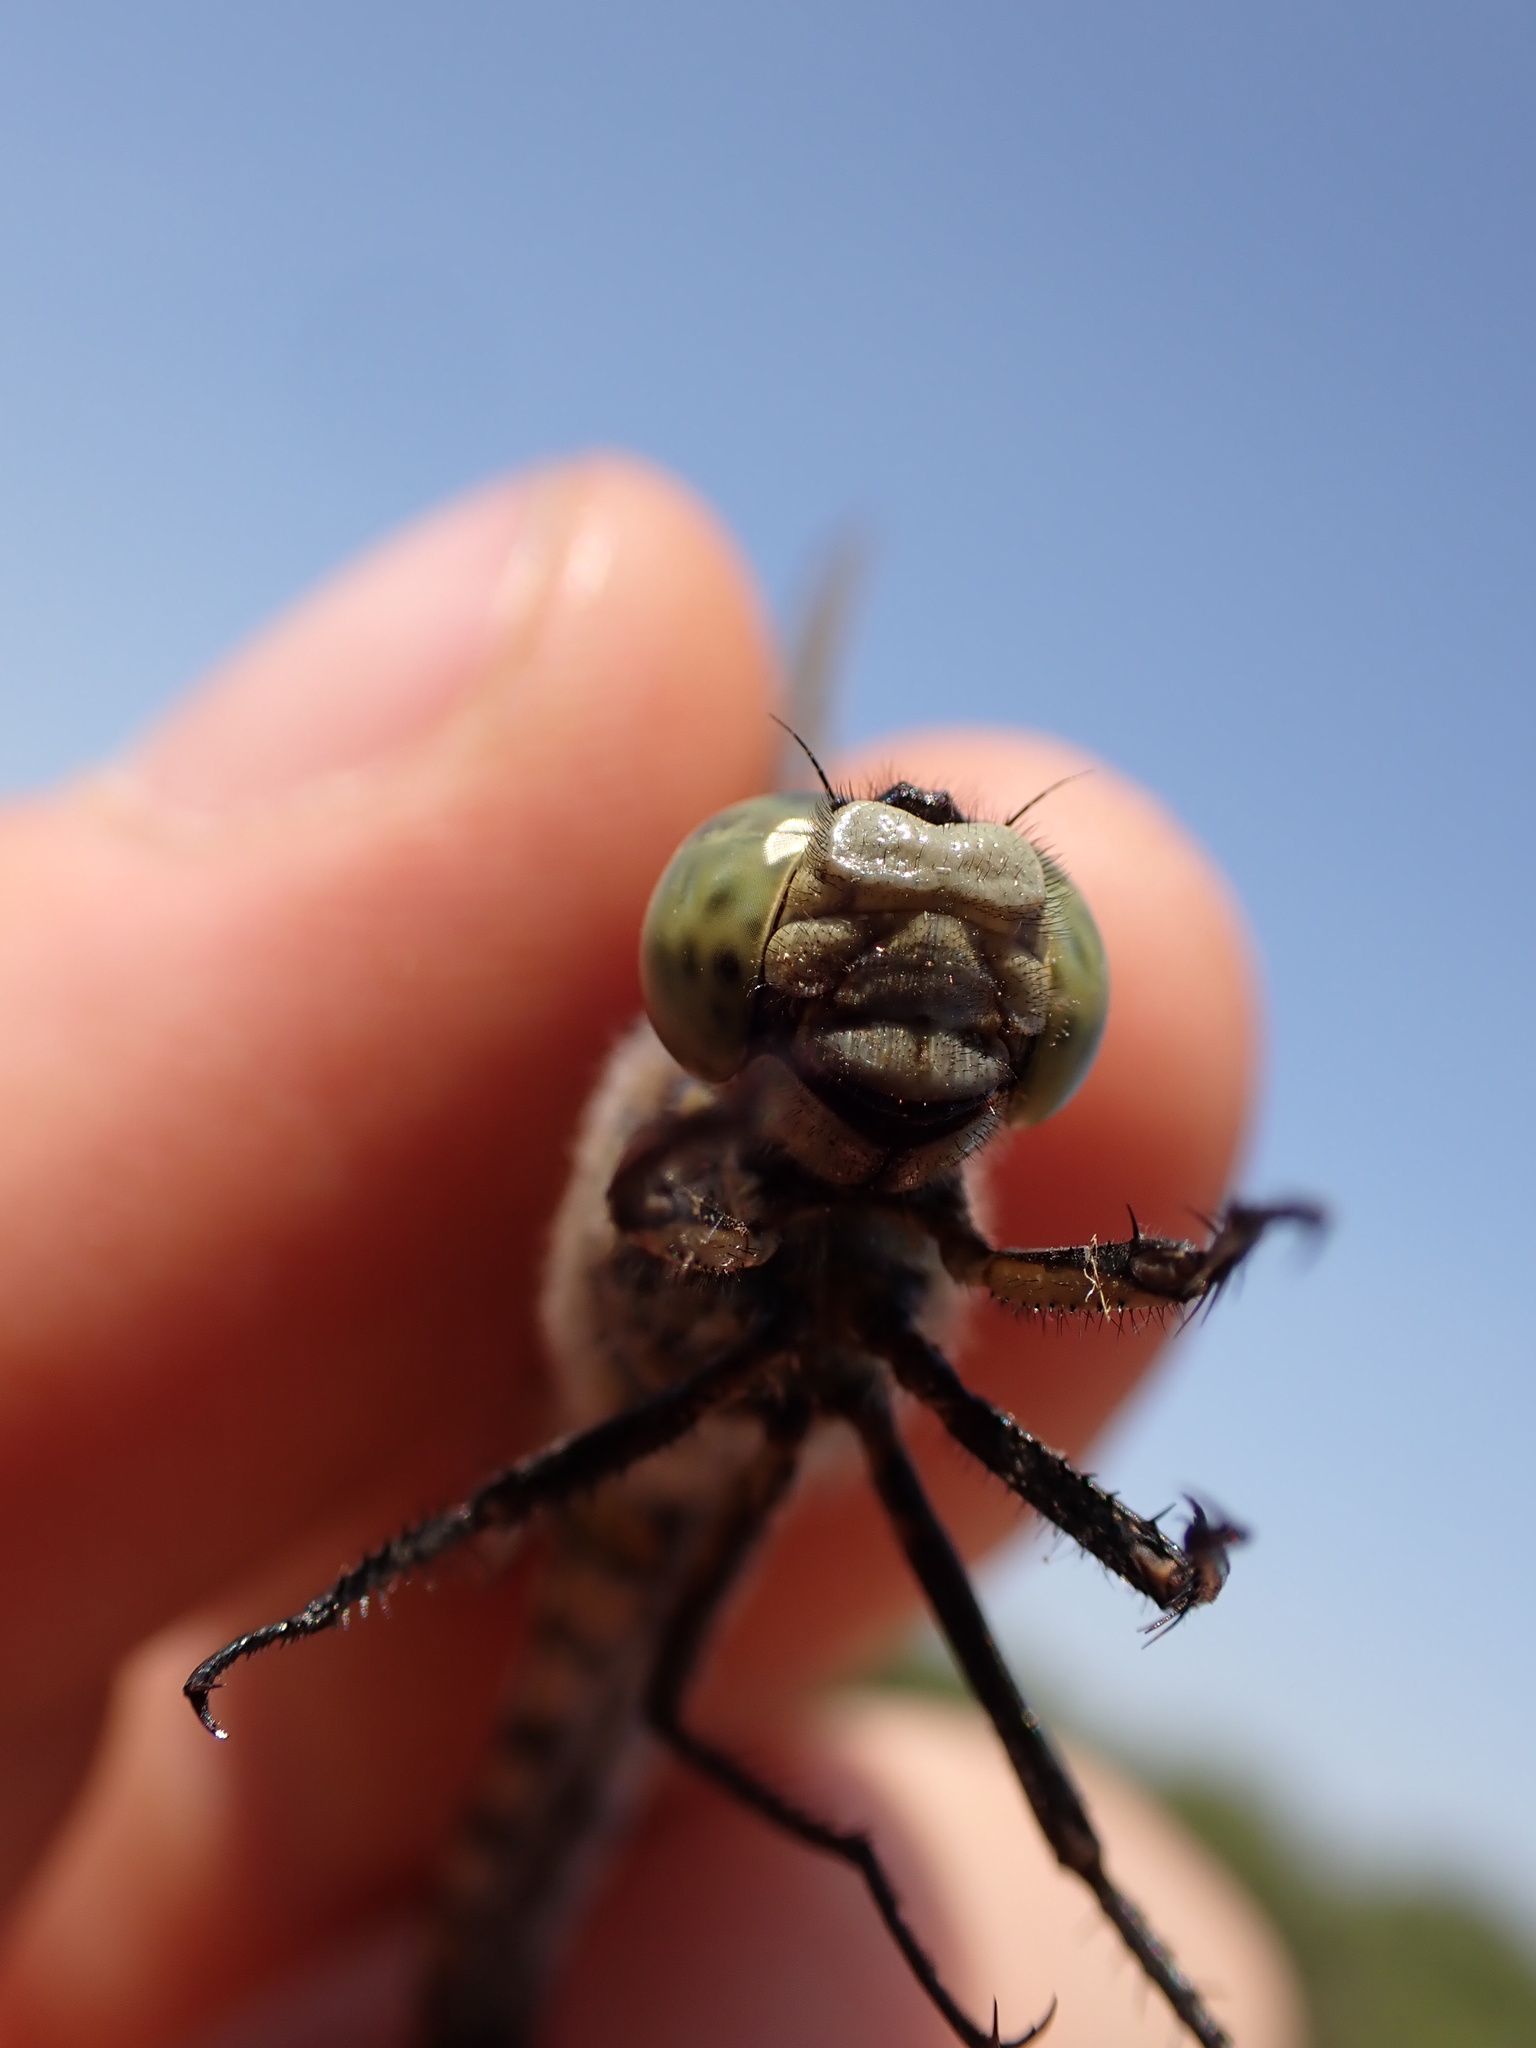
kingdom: Animalia
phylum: Arthropoda
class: Insecta
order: Odonata
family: Libellulidae
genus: Orthetrum
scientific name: Orthetrum cancellatum
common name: Black-tailed skimmer
